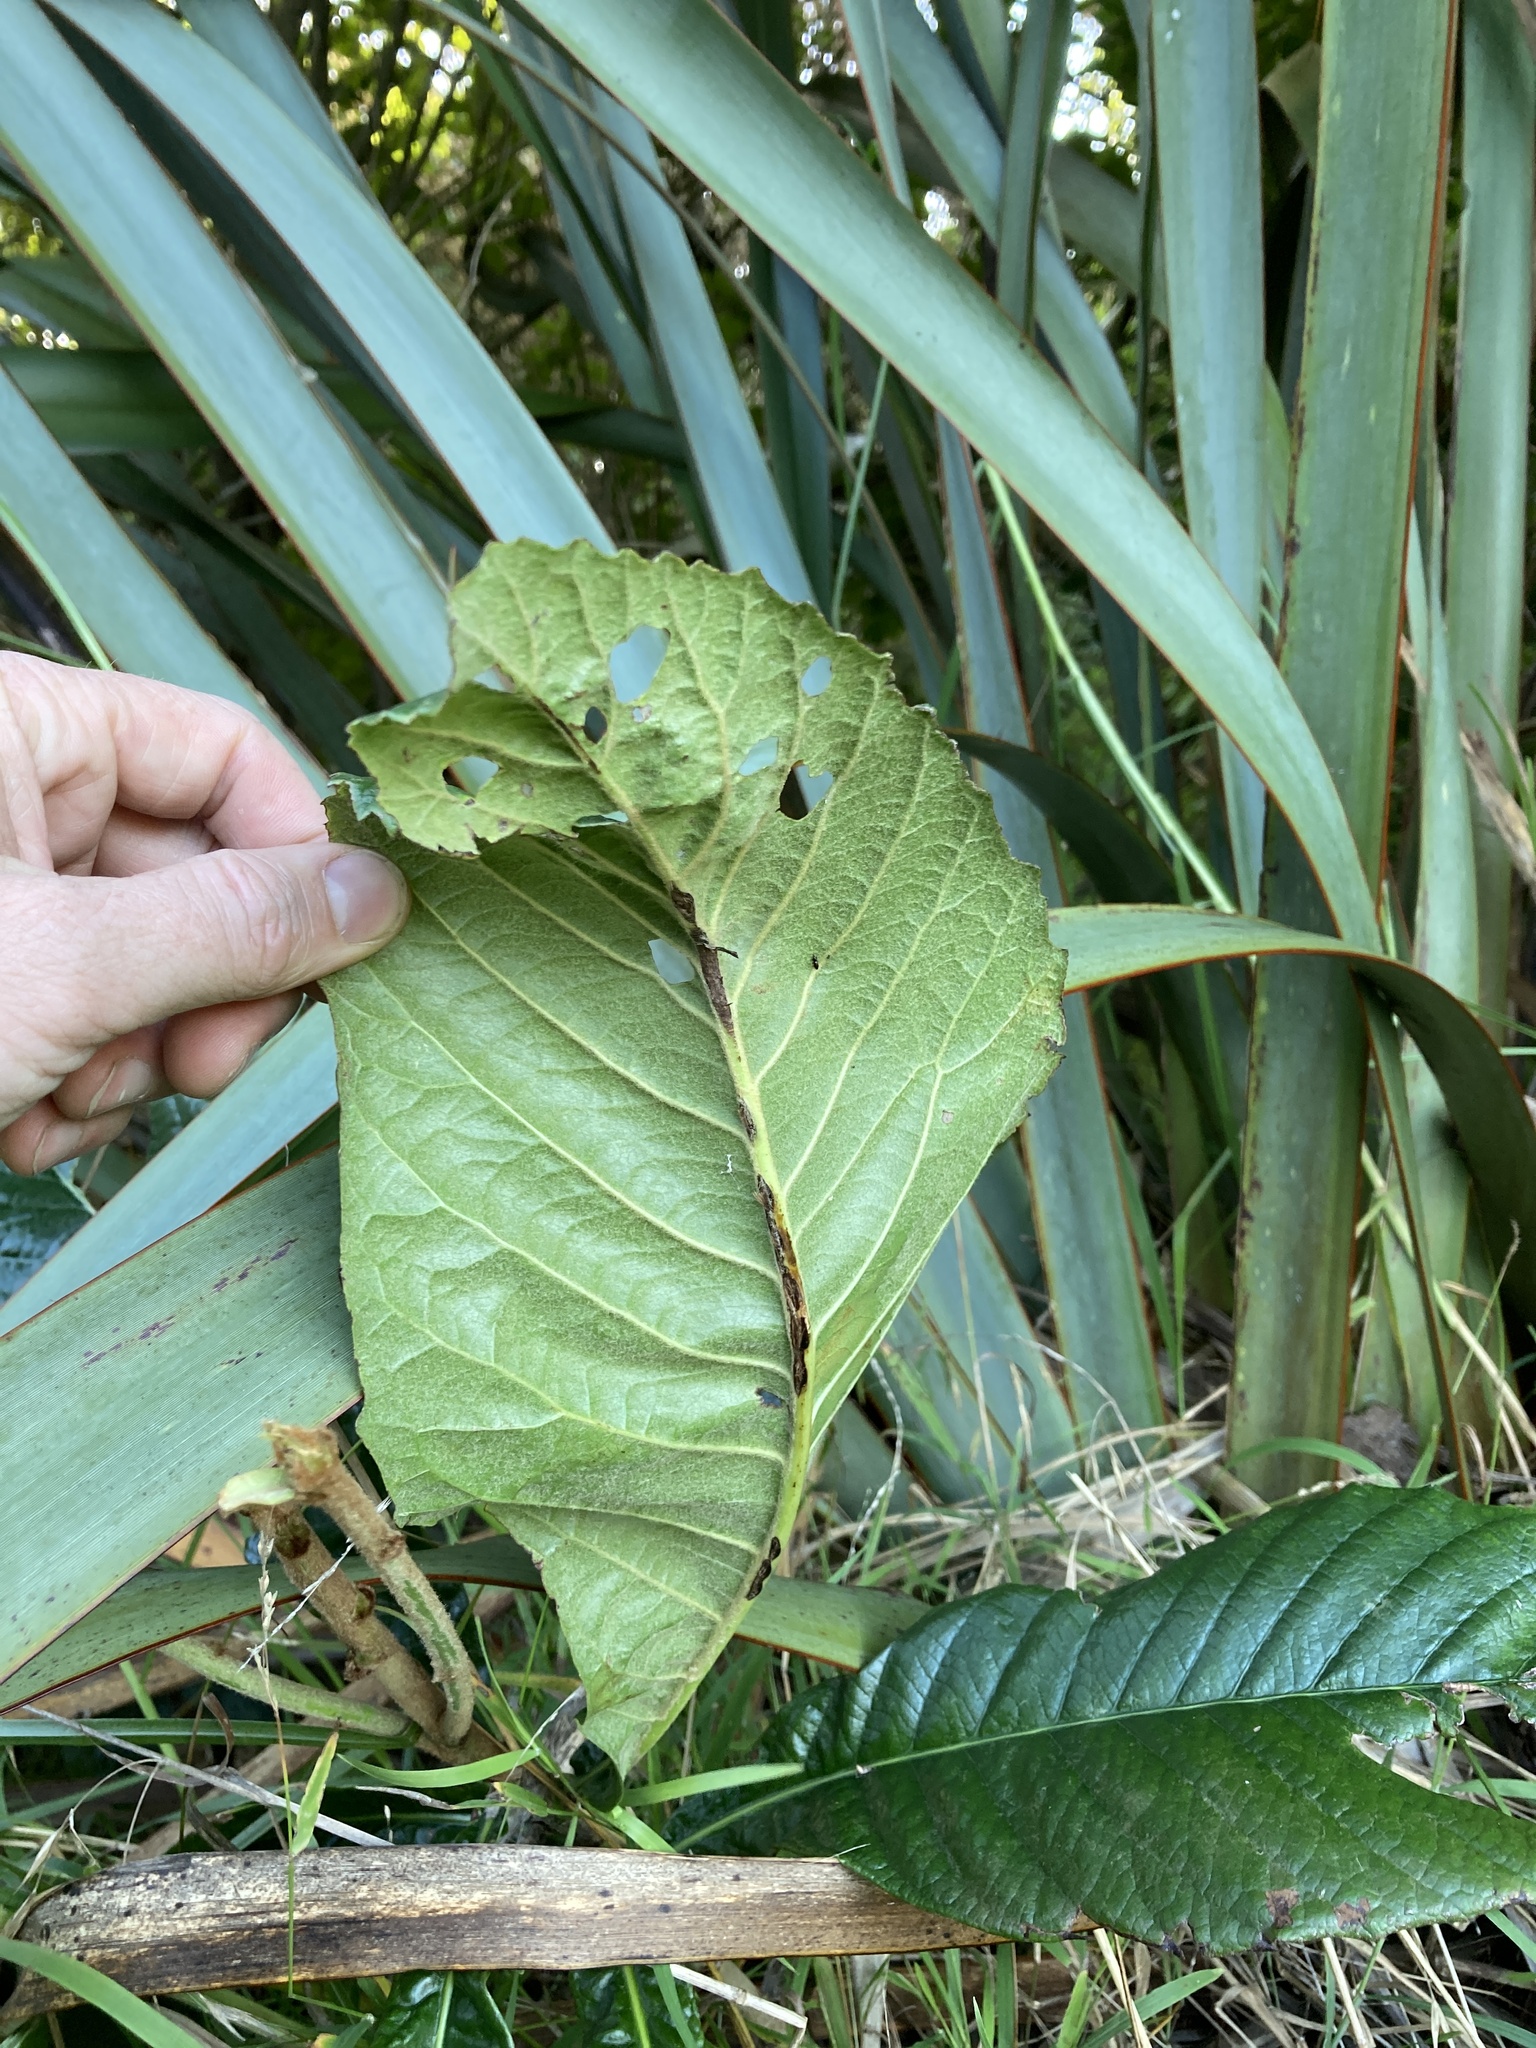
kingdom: Plantae
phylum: Tracheophyta
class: Magnoliopsida
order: Rosales
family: Rosaceae
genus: Rhaphiolepis
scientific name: Rhaphiolepis bibas
